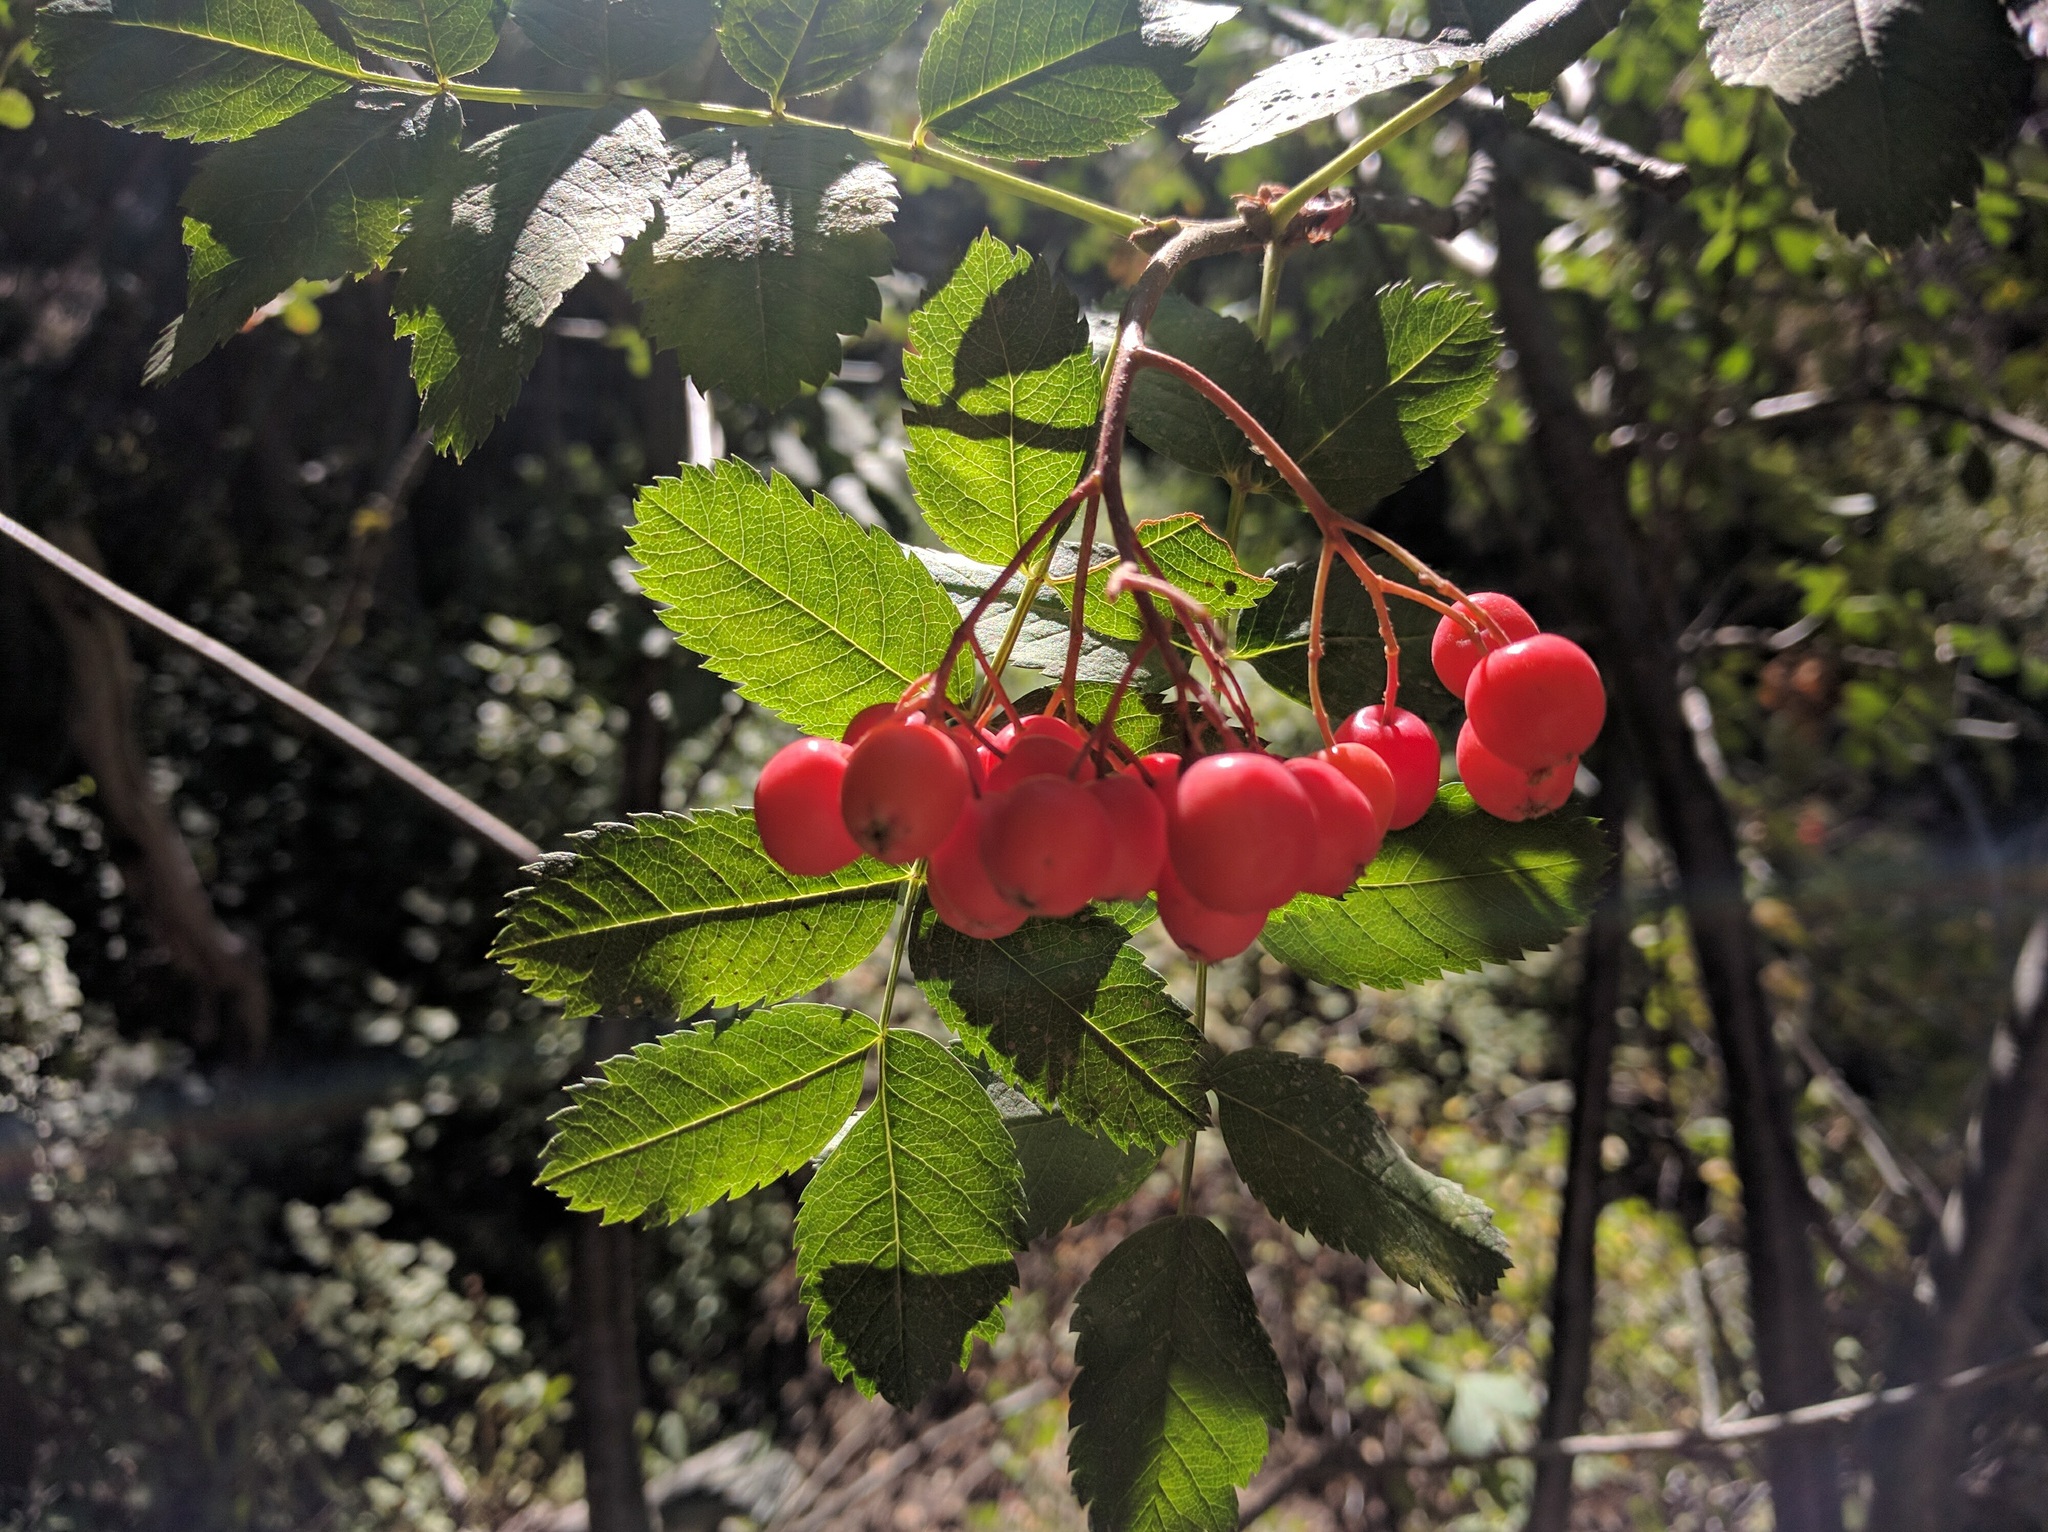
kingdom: Plantae
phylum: Tracheophyta
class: Magnoliopsida
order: Rosales
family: Rosaceae
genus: Sorbus
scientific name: Sorbus aucuparia
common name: Rowan
